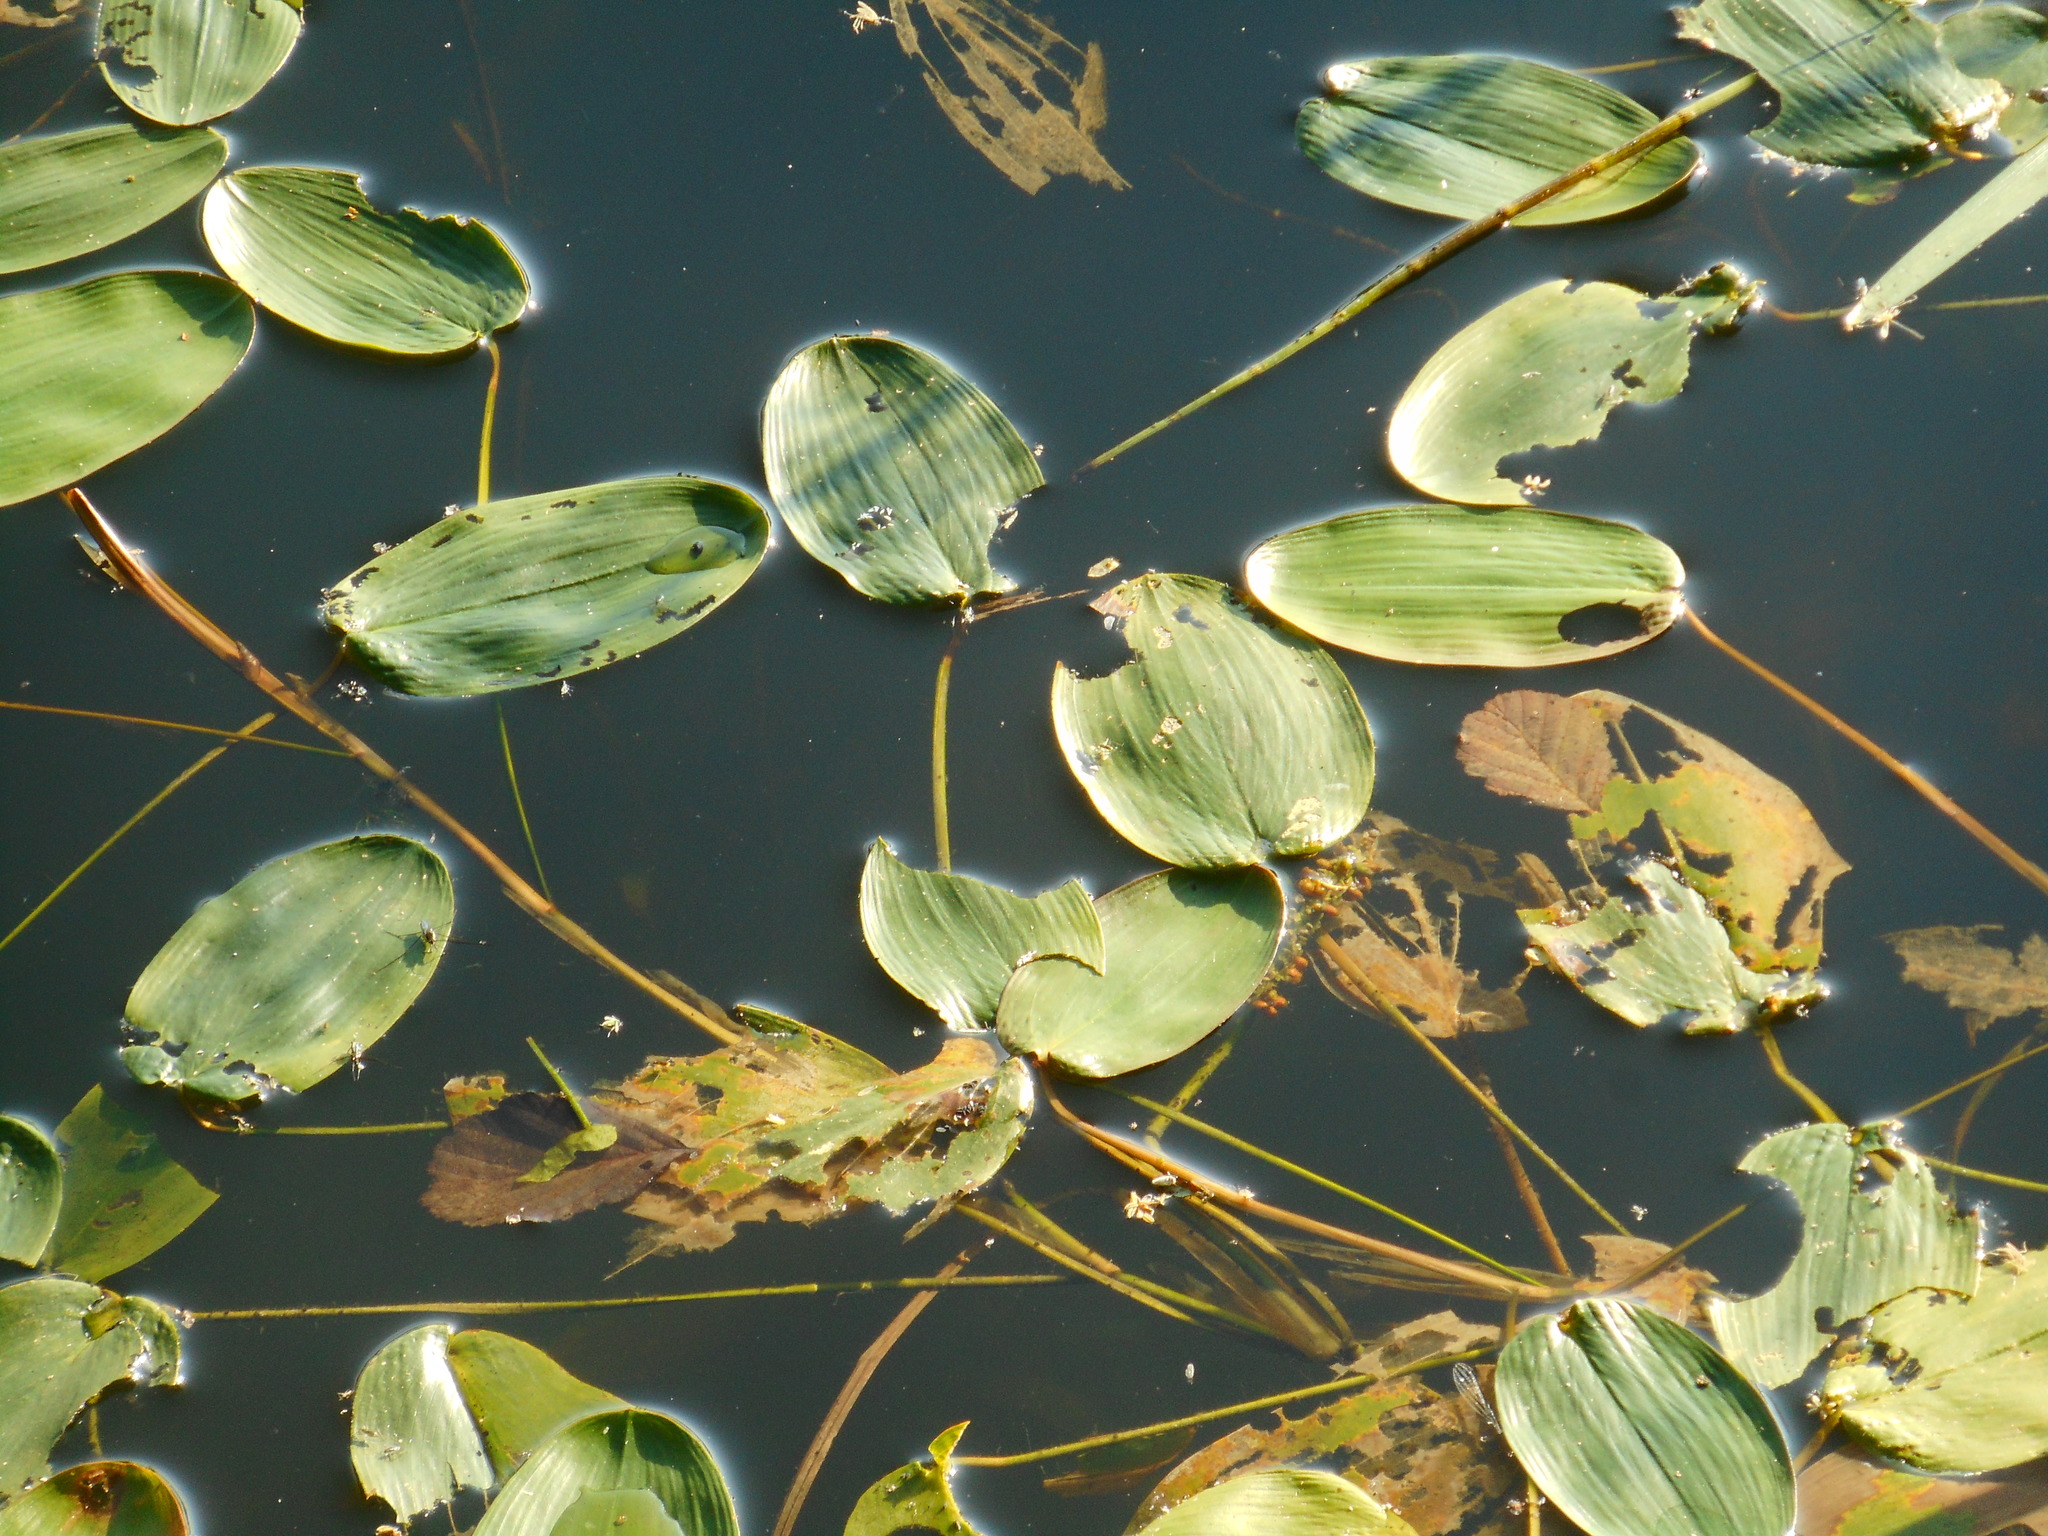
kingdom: Plantae
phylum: Tracheophyta
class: Liliopsida
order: Alismatales
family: Potamogetonaceae
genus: Potamogeton
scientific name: Potamogeton natans
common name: Broad-leaved pondweed
